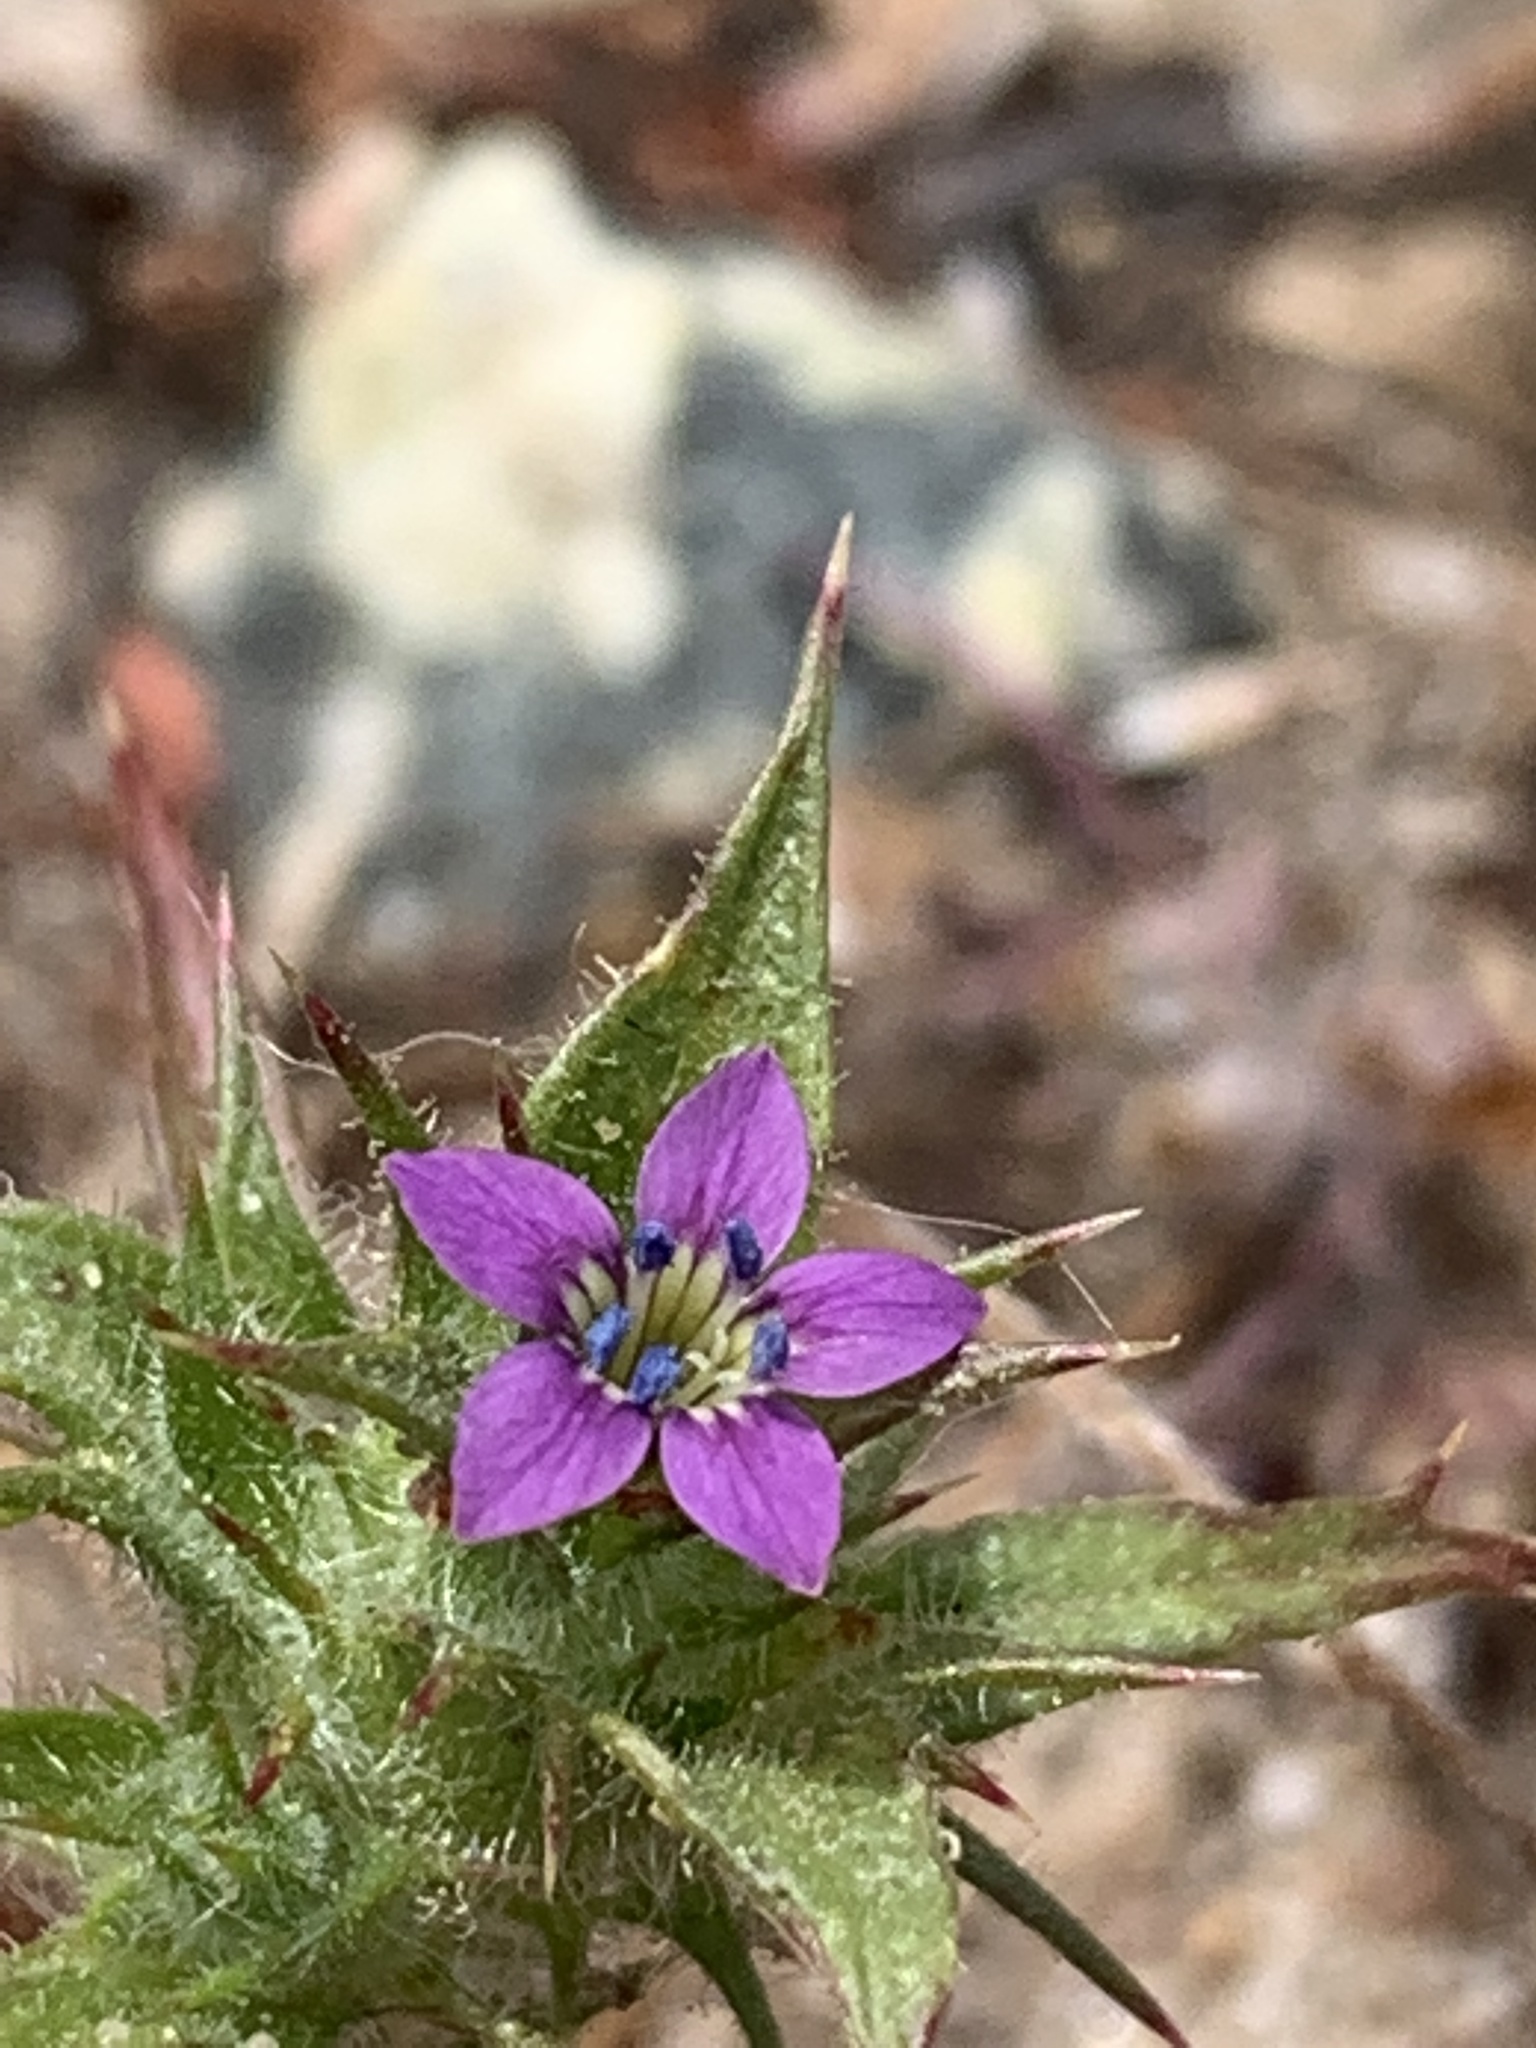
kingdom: Plantae
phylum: Tracheophyta
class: Magnoliopsida
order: Ericales
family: Polemoniaceae
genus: Navarretia
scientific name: Navarretia atractyloides
